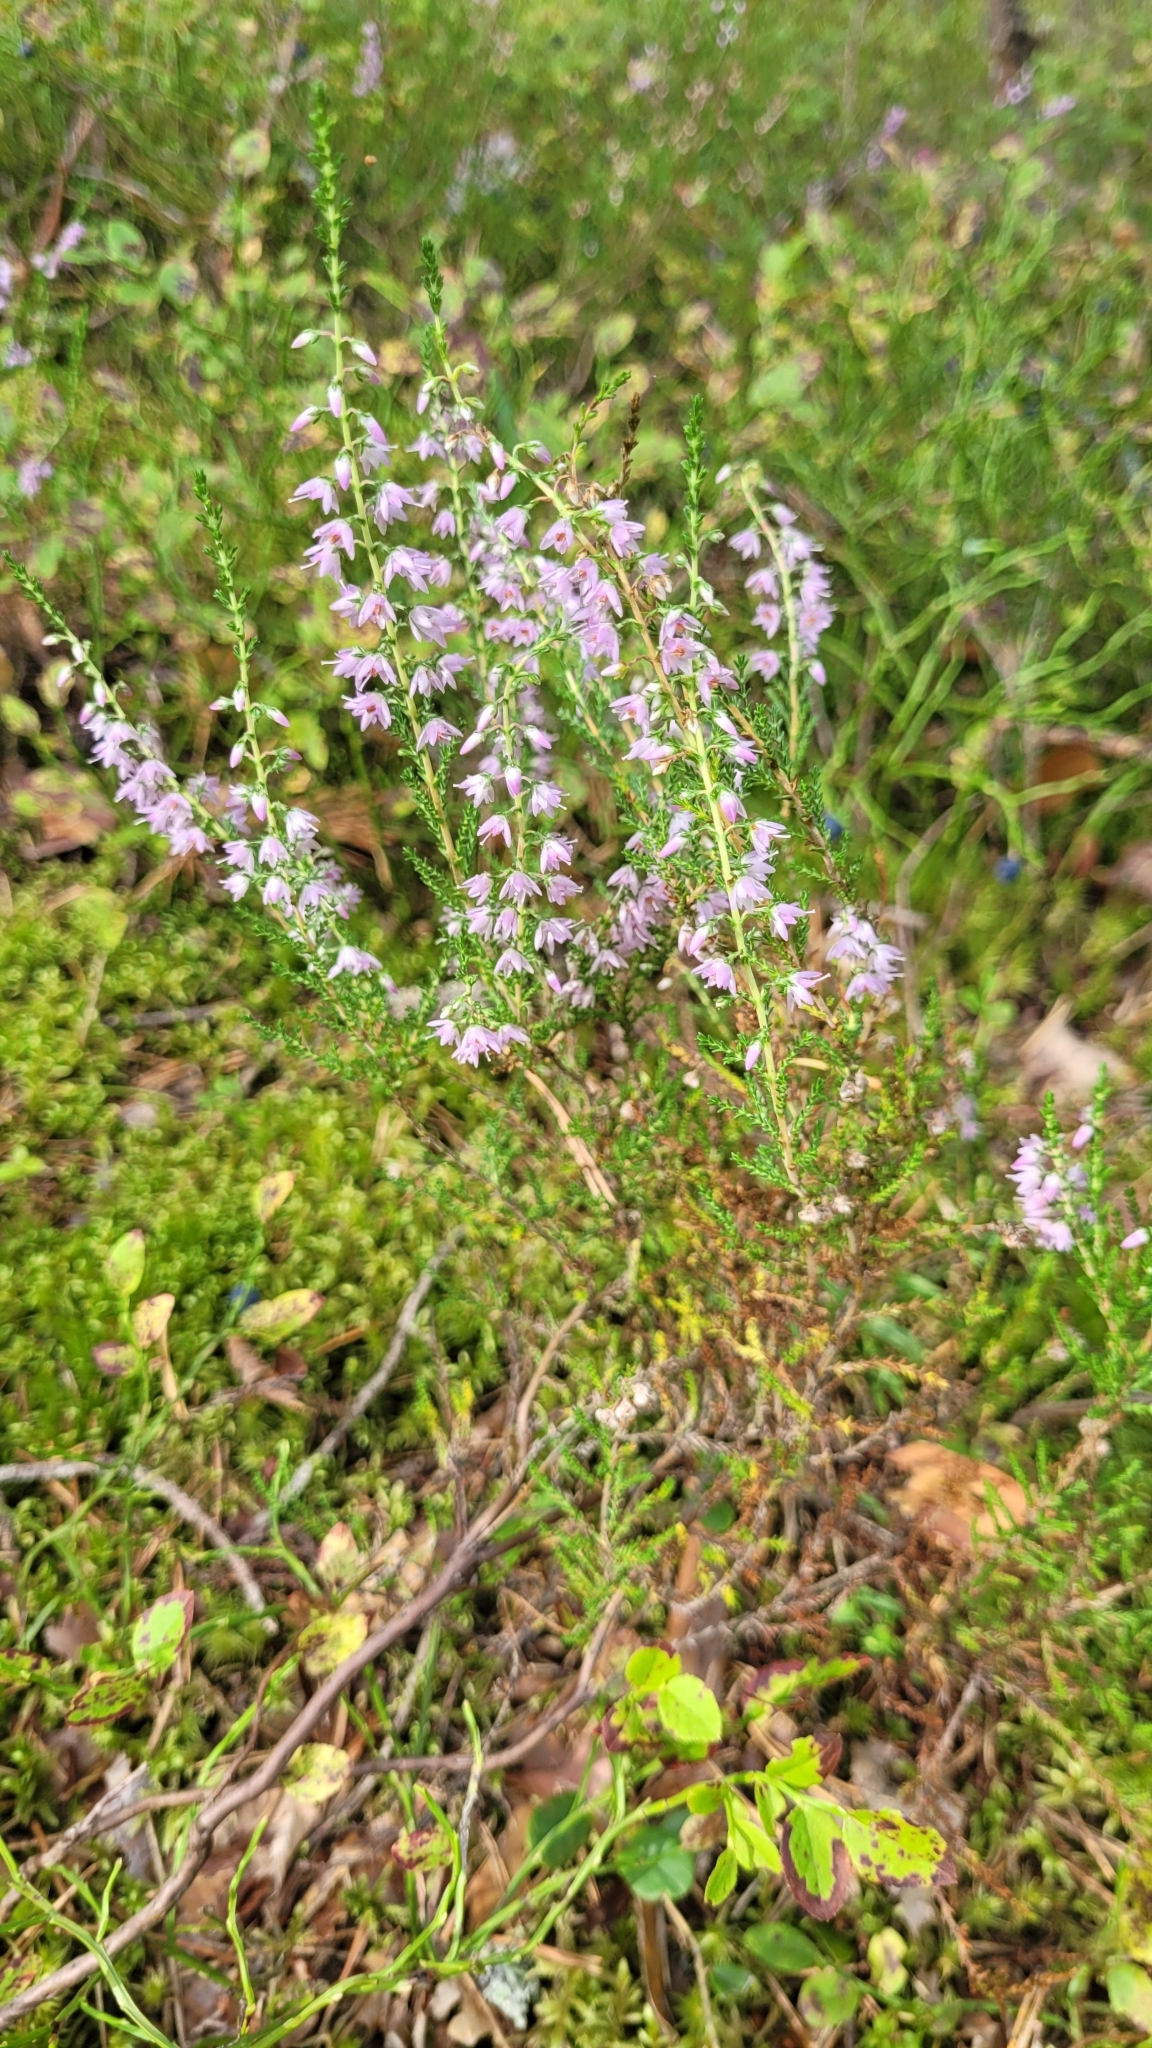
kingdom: Plantae
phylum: Tracheophyta
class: Magnoliopsida
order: Ericales
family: Ericaceae
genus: Calluna
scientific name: Calluna vulgaris
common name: Heather
